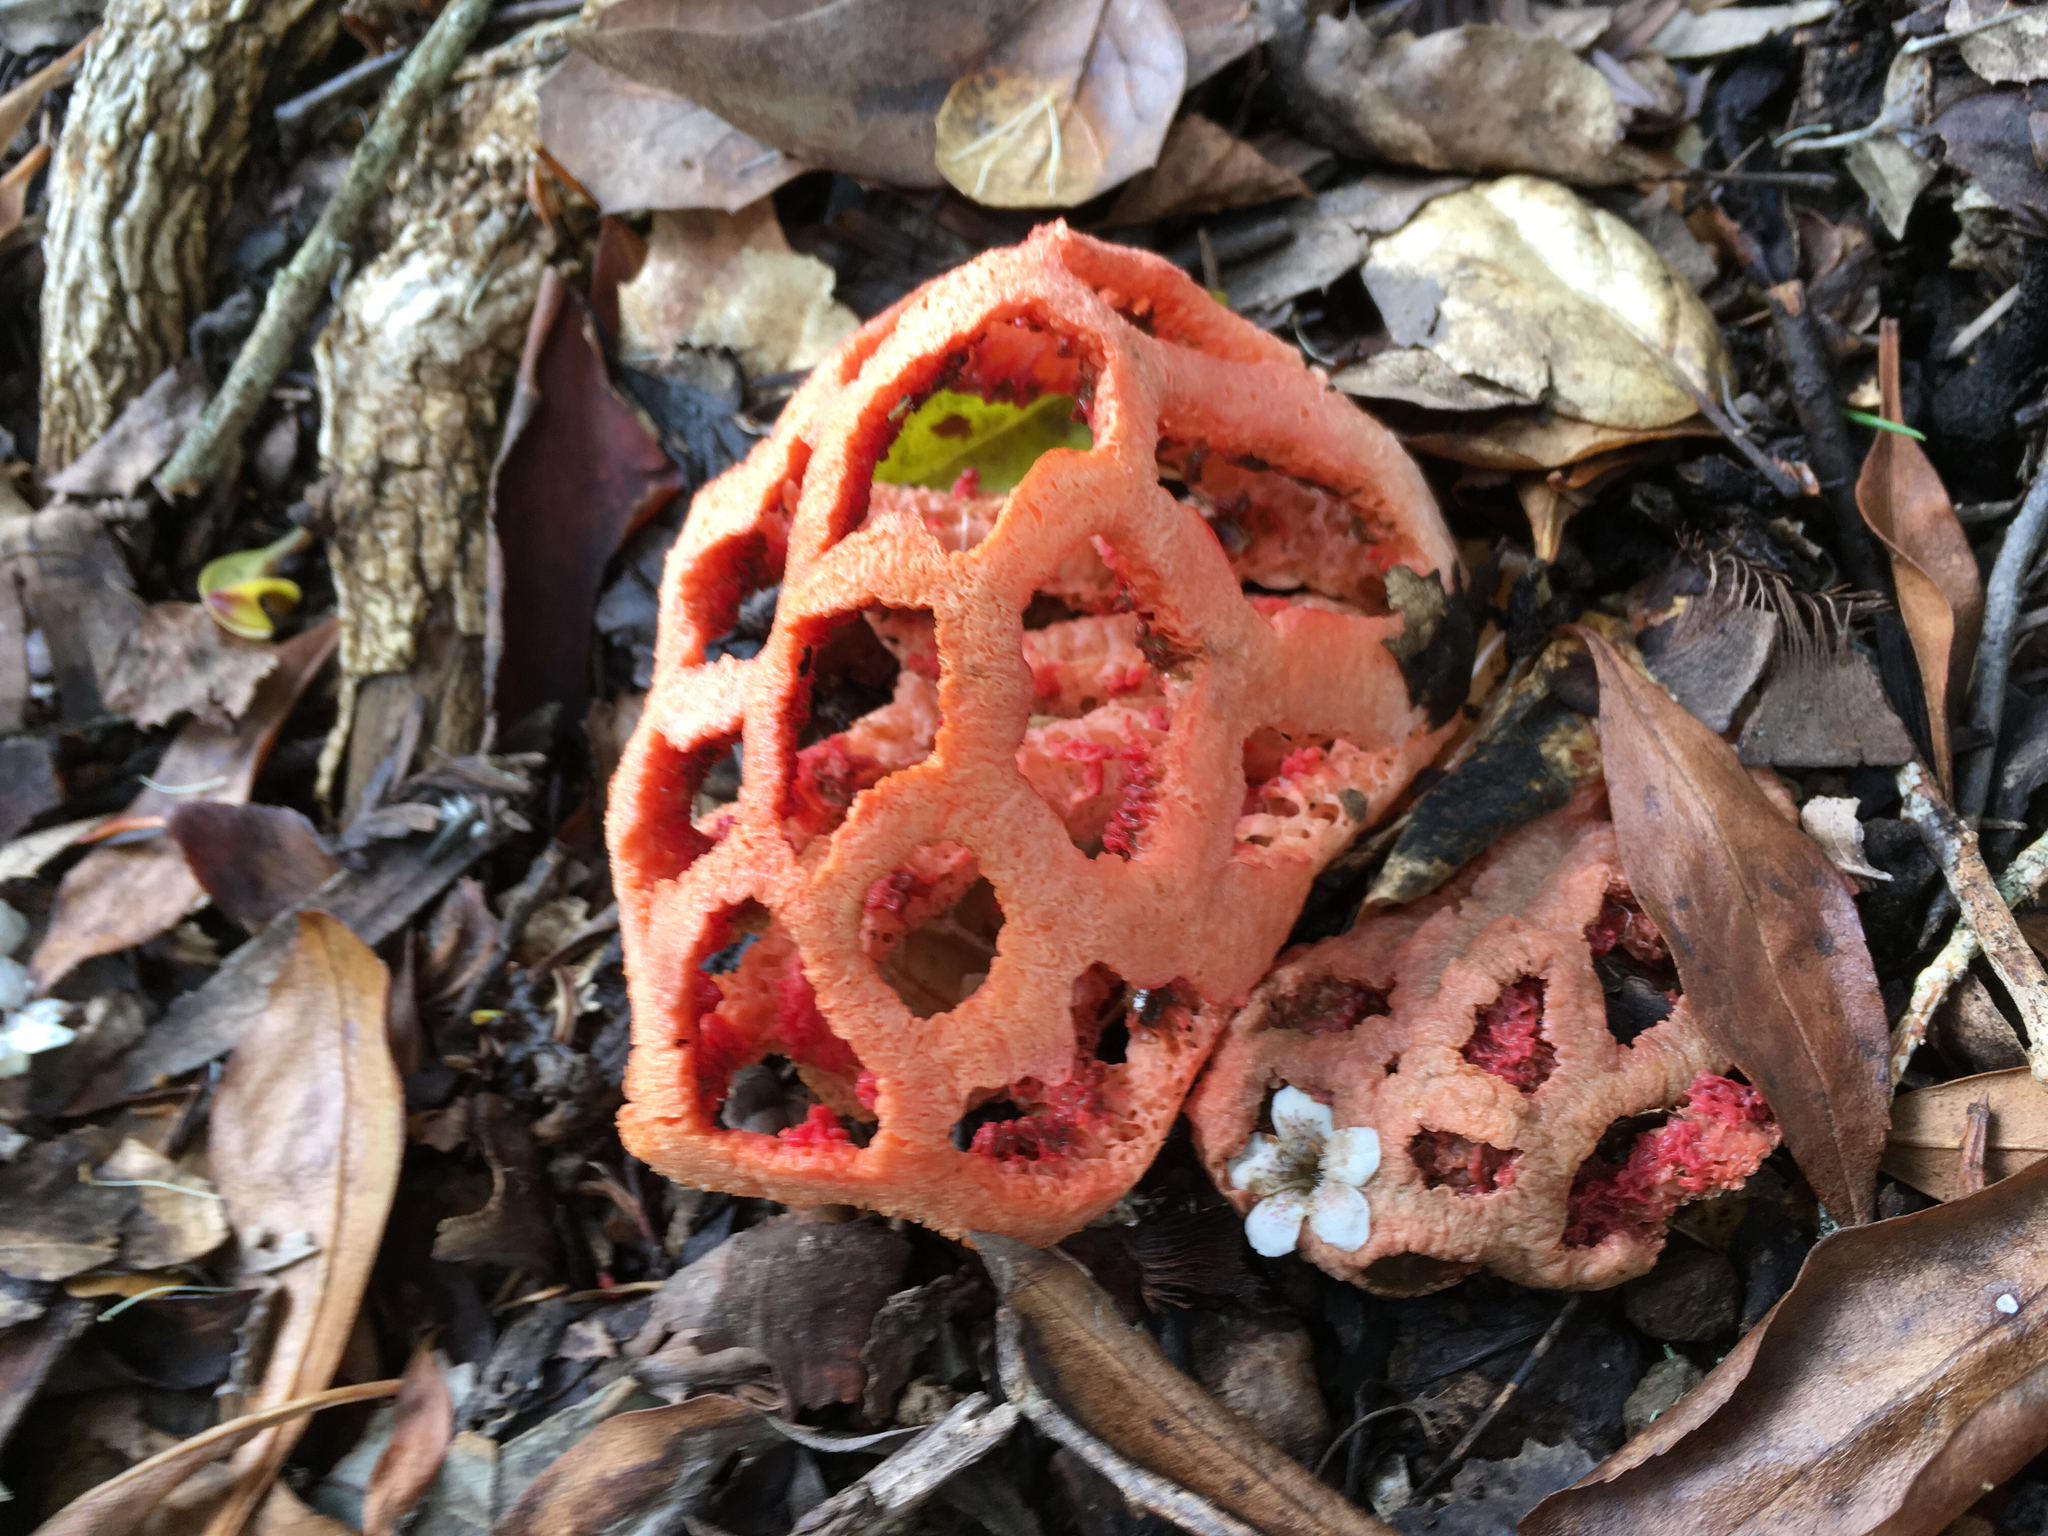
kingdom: Fungi
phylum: Basidiomycota
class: Agaricomycetes
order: Phallales
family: Phallaceae
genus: Clathrus
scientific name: Clathrus ruber
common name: Red cage
